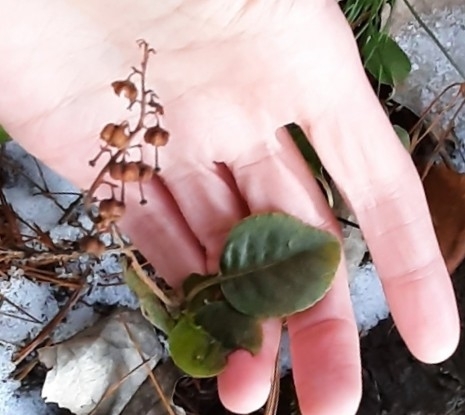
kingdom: Plantae
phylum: Tracheophyta
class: Magnoliopsida
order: Ericales
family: Ericaceae
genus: Orthilia
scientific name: Orthilia secunda
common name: One-sided orthilia
